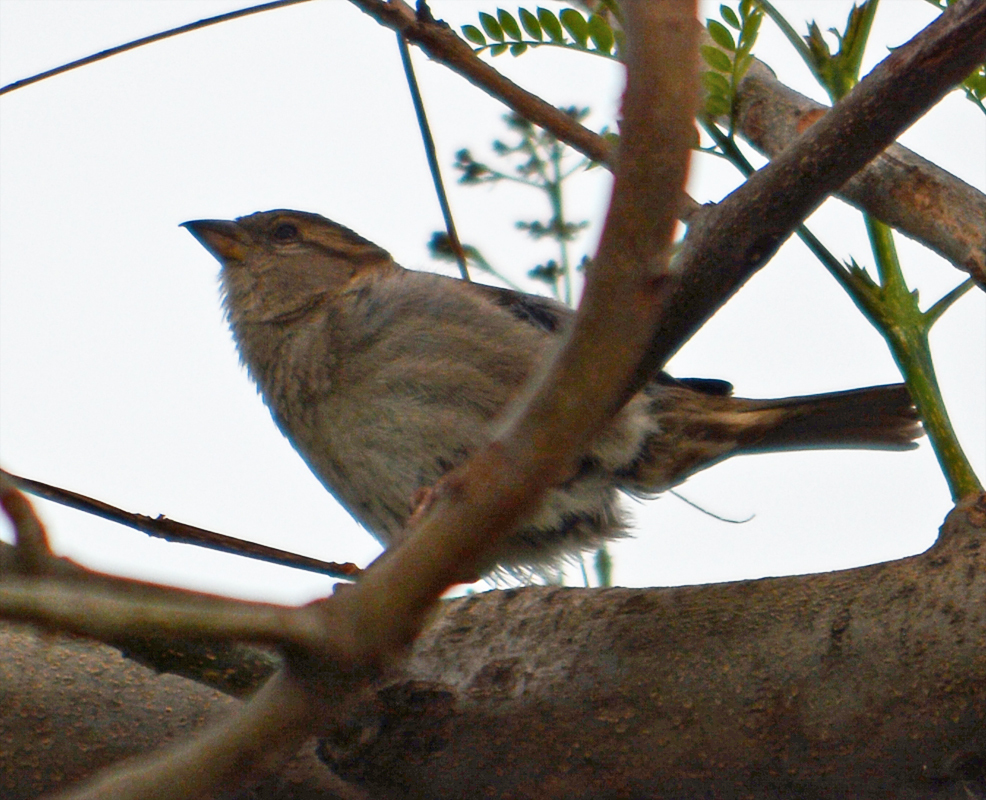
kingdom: Animalia
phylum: Chordata
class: Aves
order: Passeriformes
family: Passeridae
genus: Passer
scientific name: Passer domesticus
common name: House sparrow
